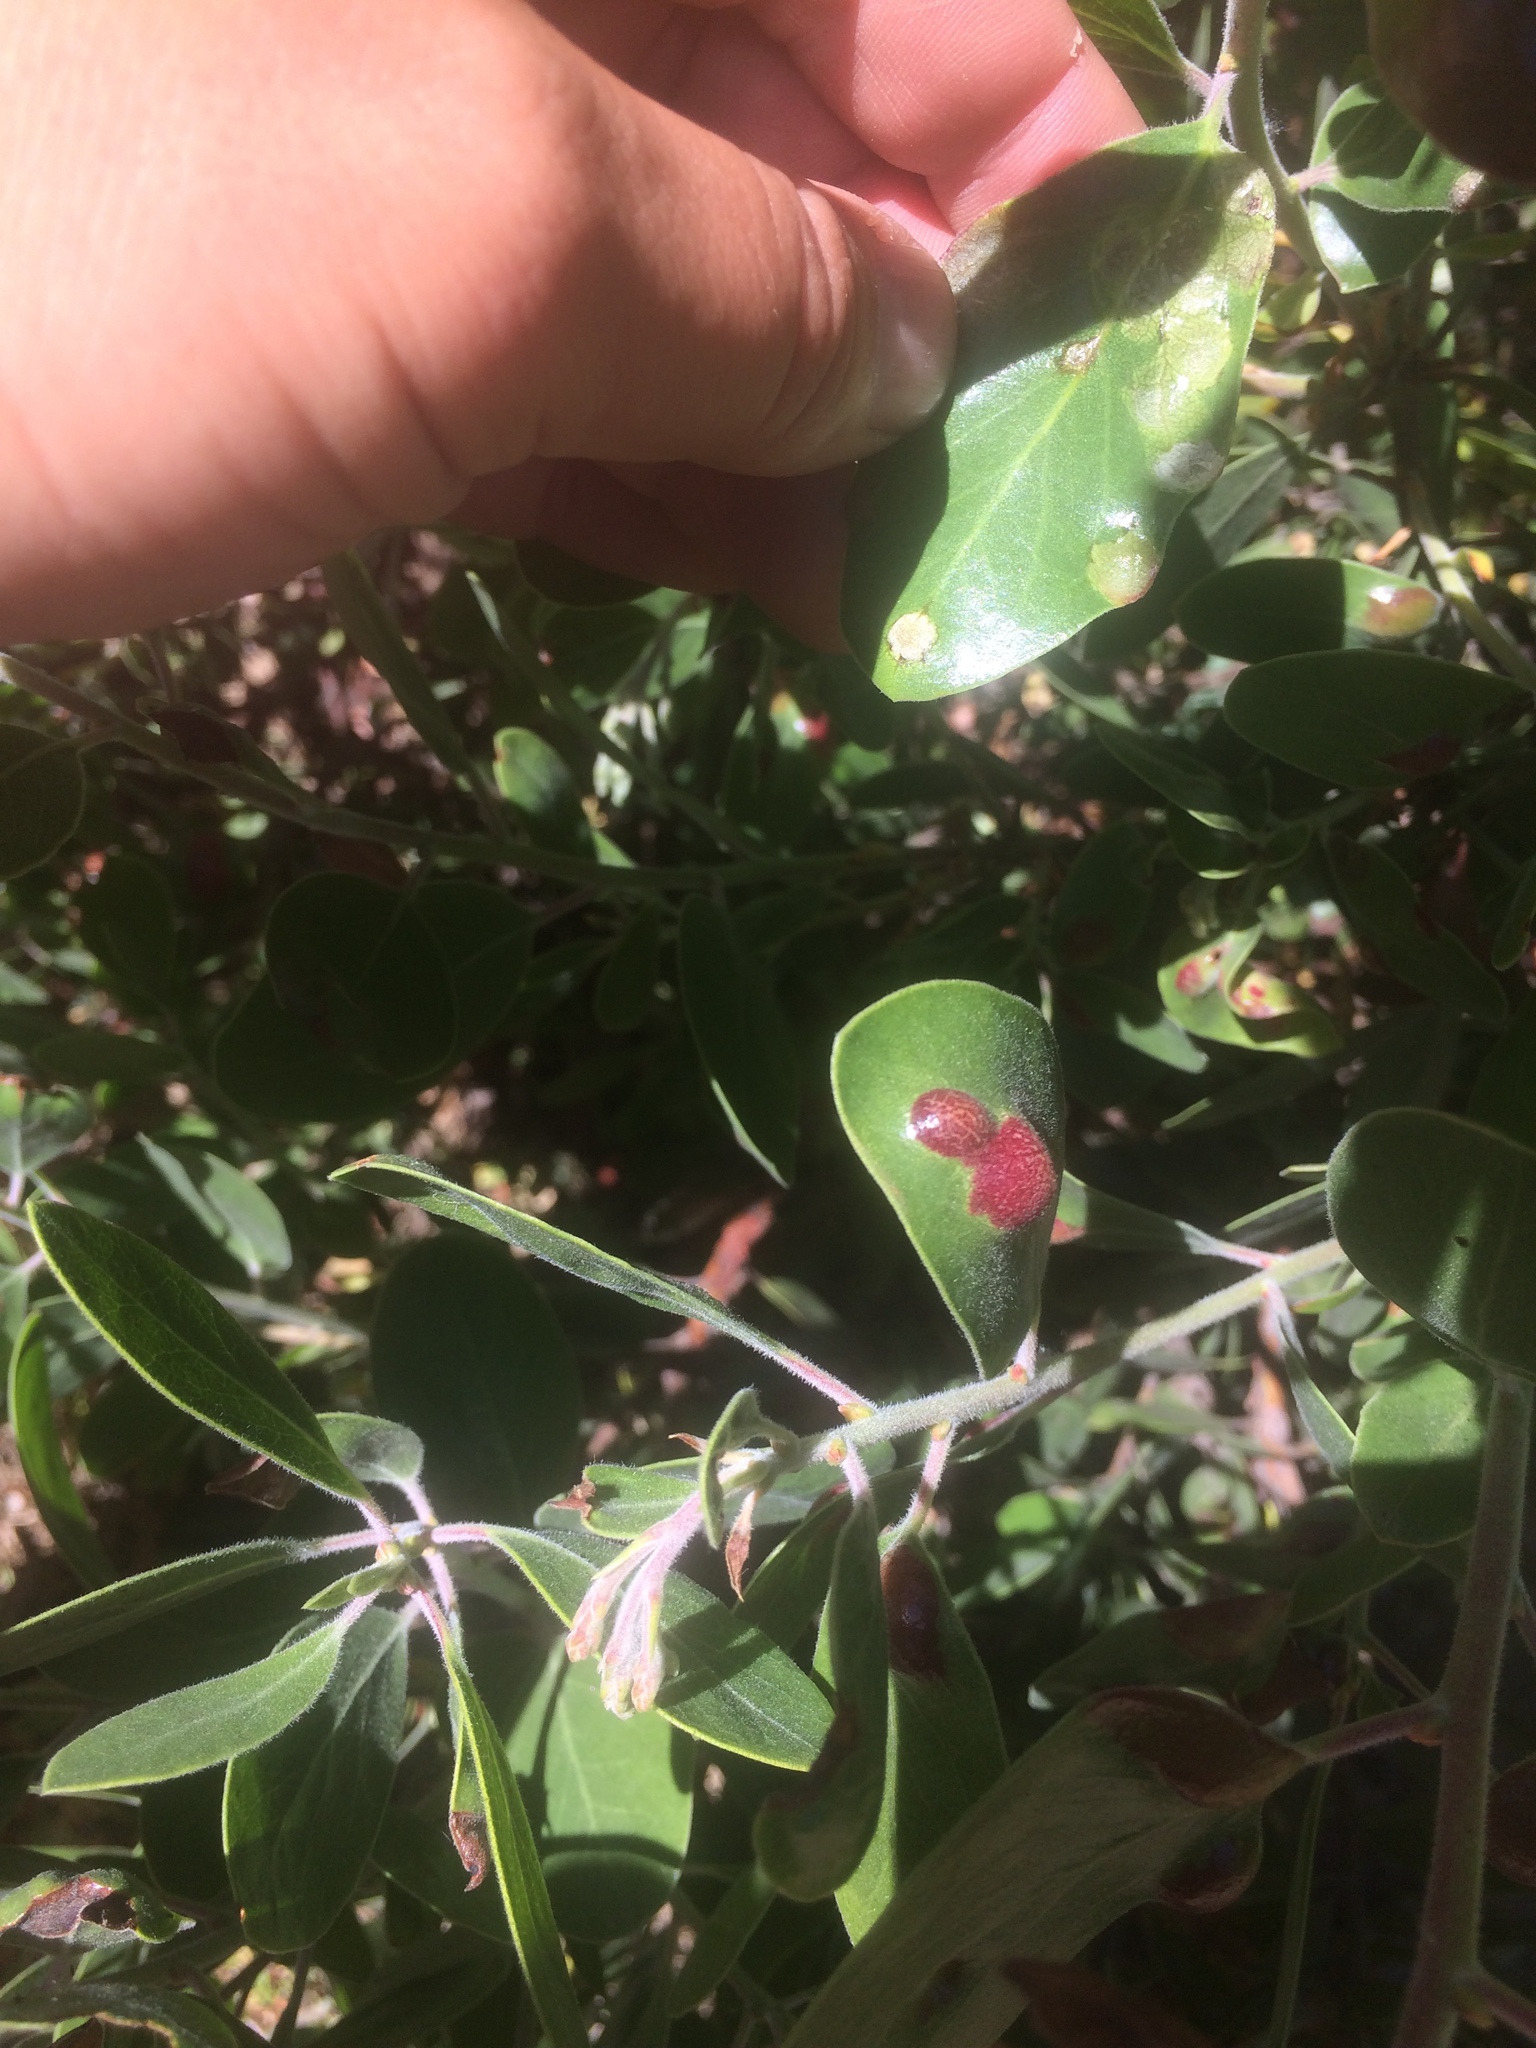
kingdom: Fungi
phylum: Basidiomycota
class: Exobasidiomycetes
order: Exobasidiales
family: Exobasidiaceae
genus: Exobasidium
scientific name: Exobasidium arctostaphyli
